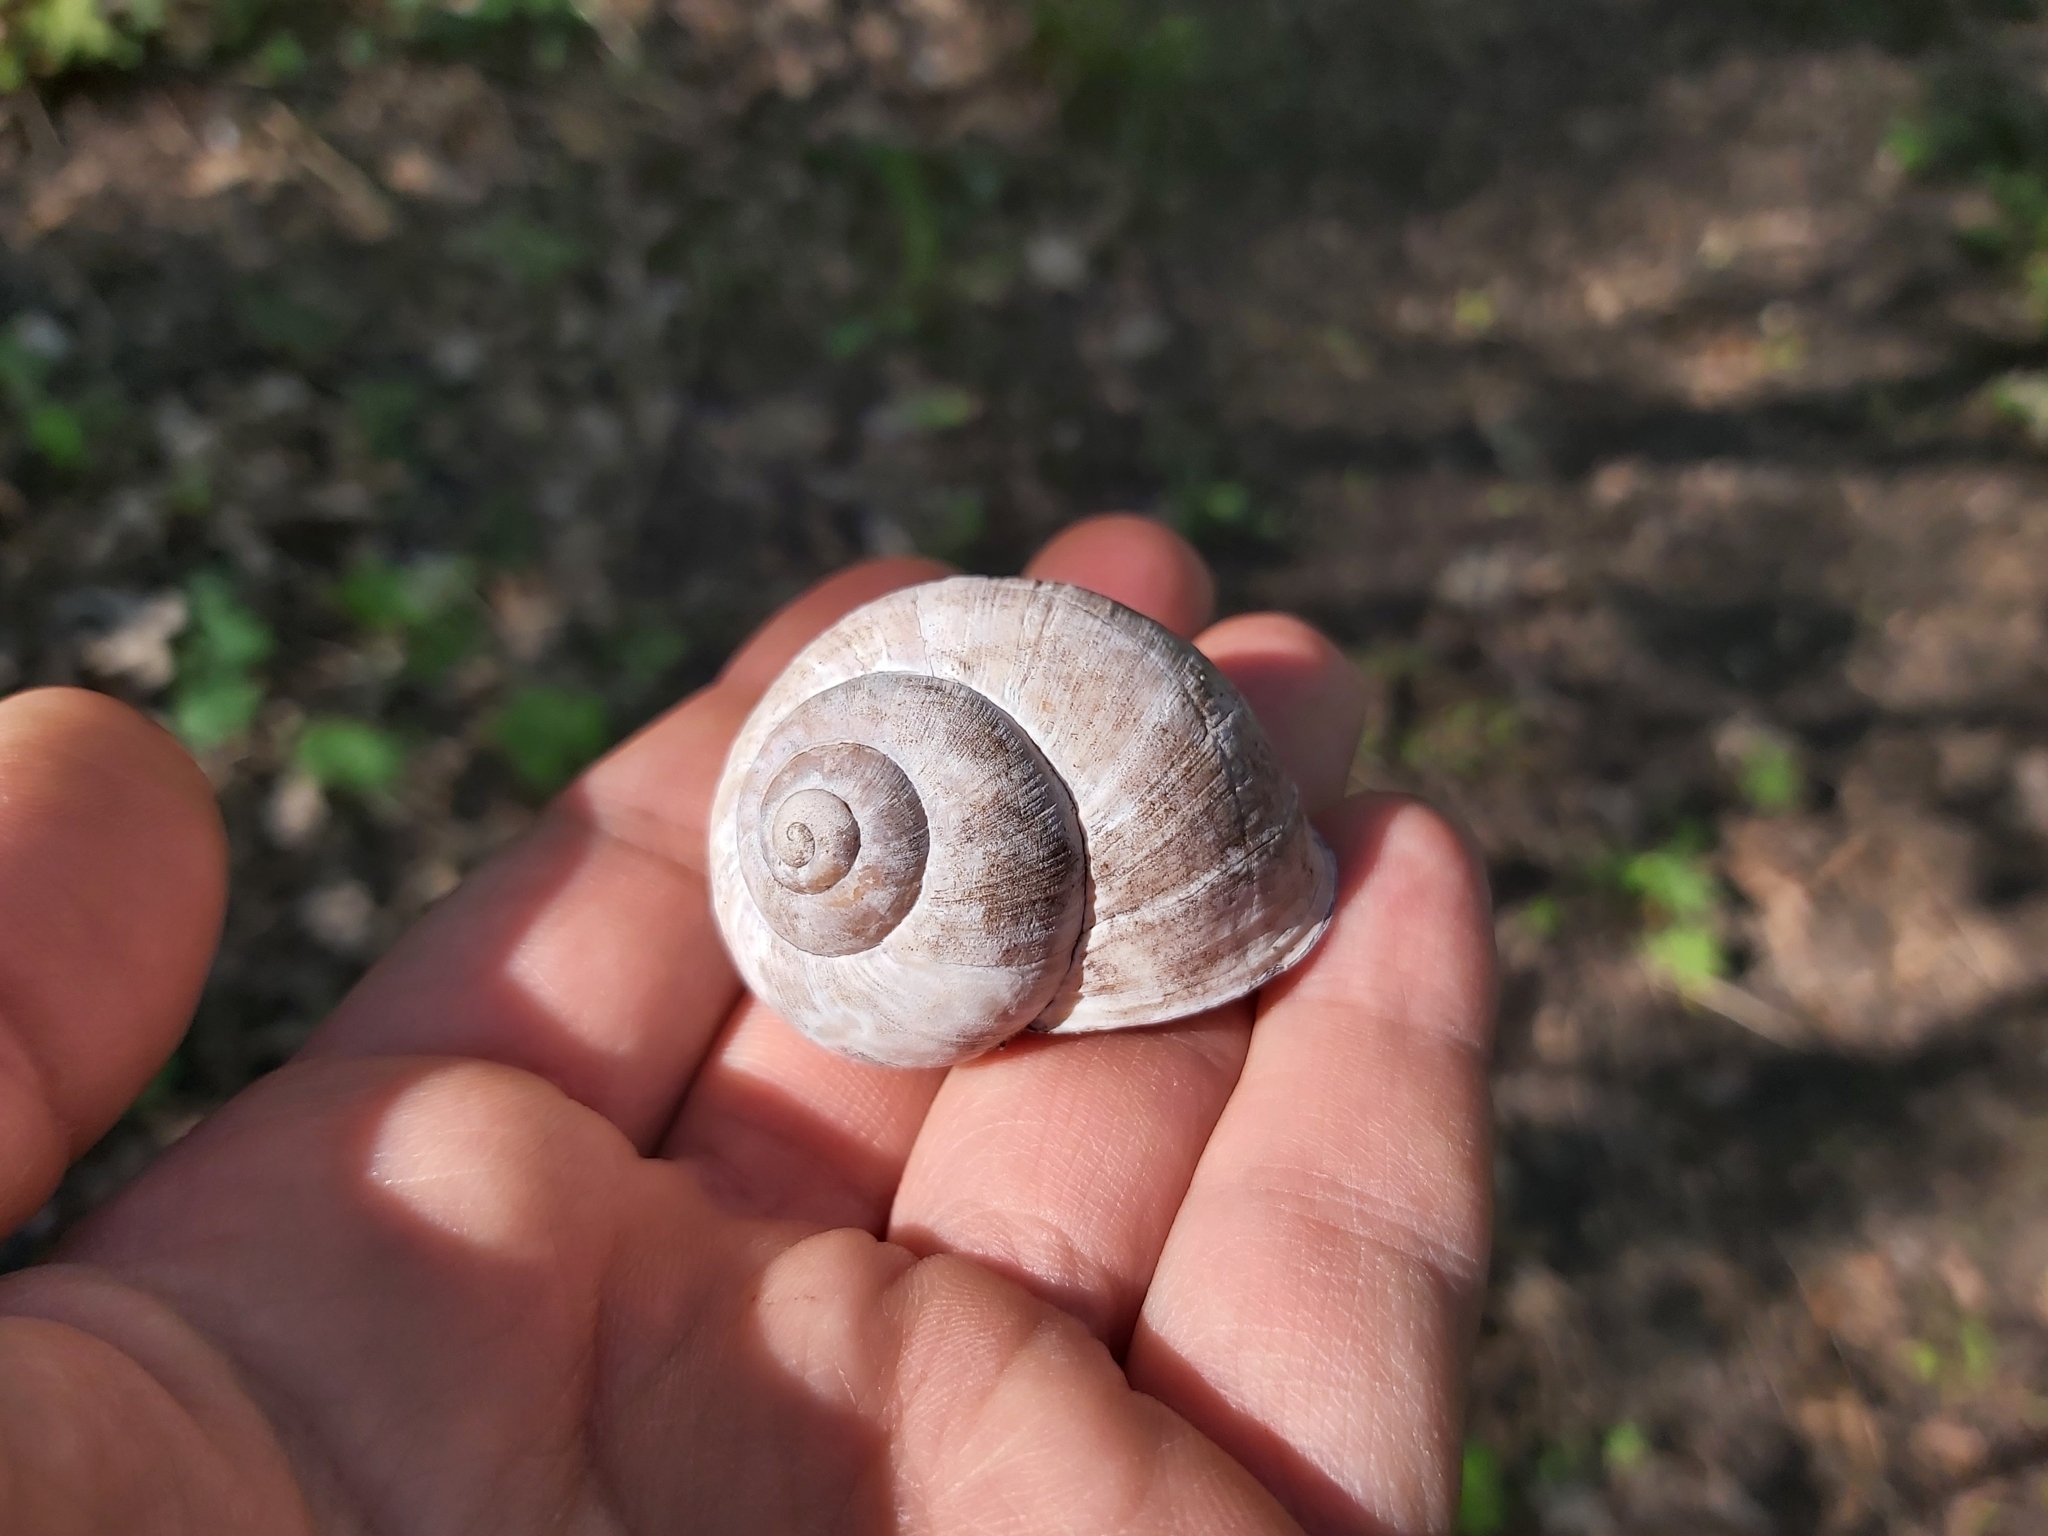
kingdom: Animalia
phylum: Mollusca
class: Gastropoda
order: Stylommatophora
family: Helicidae
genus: Helix
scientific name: Helix pomatia
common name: Roman snail
